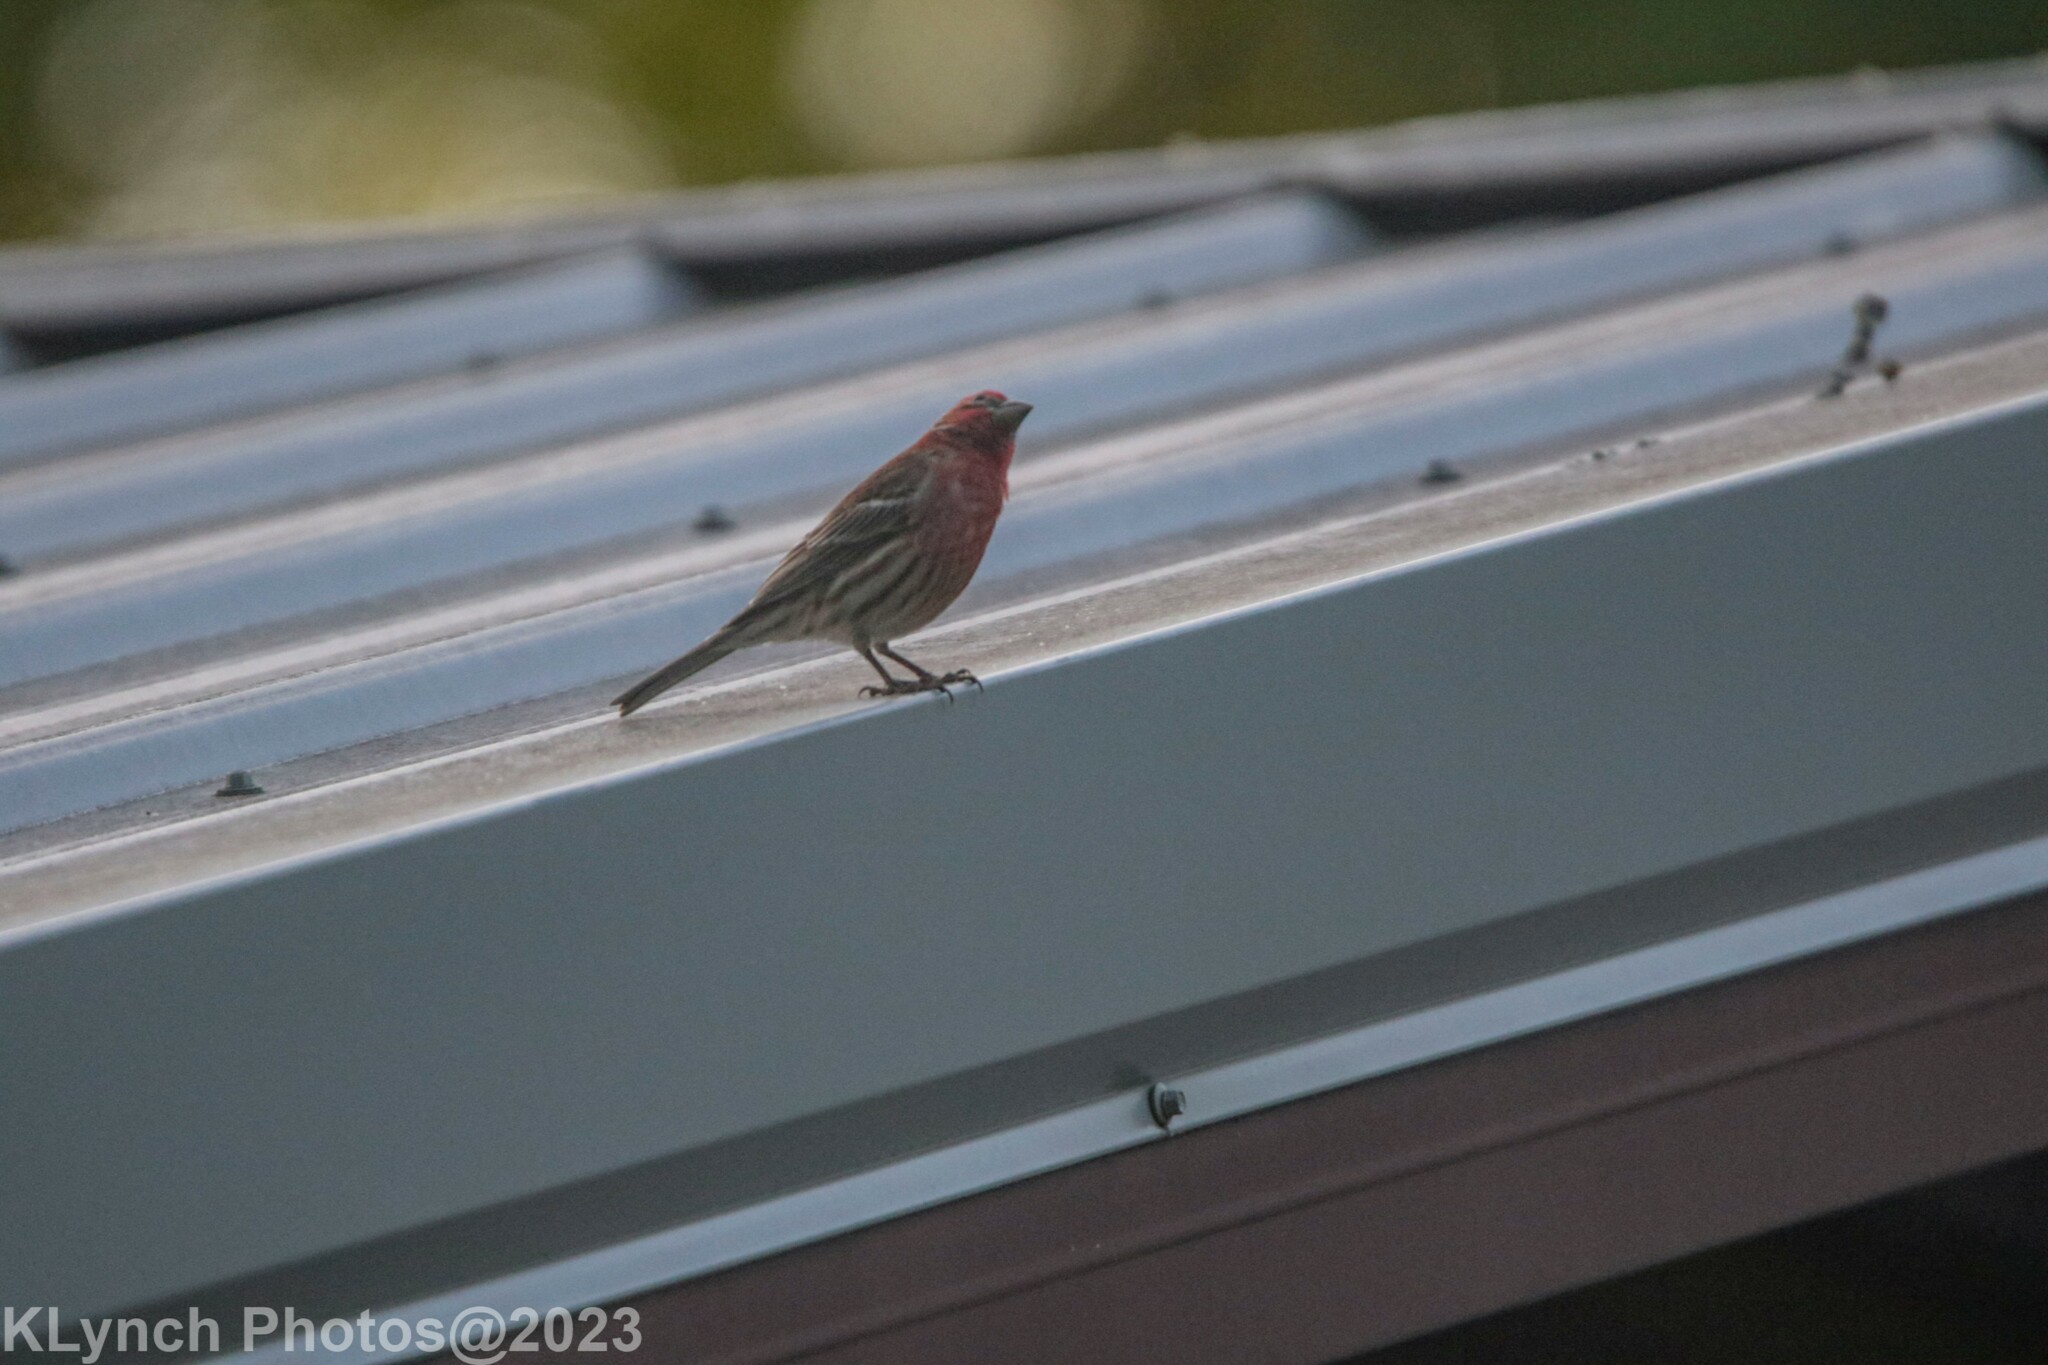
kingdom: Animalia
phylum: Chordata
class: Aves
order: Passeriformes
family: Fringillidae
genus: Haemorhous
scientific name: Haemorhous mexicanus
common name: House finch
